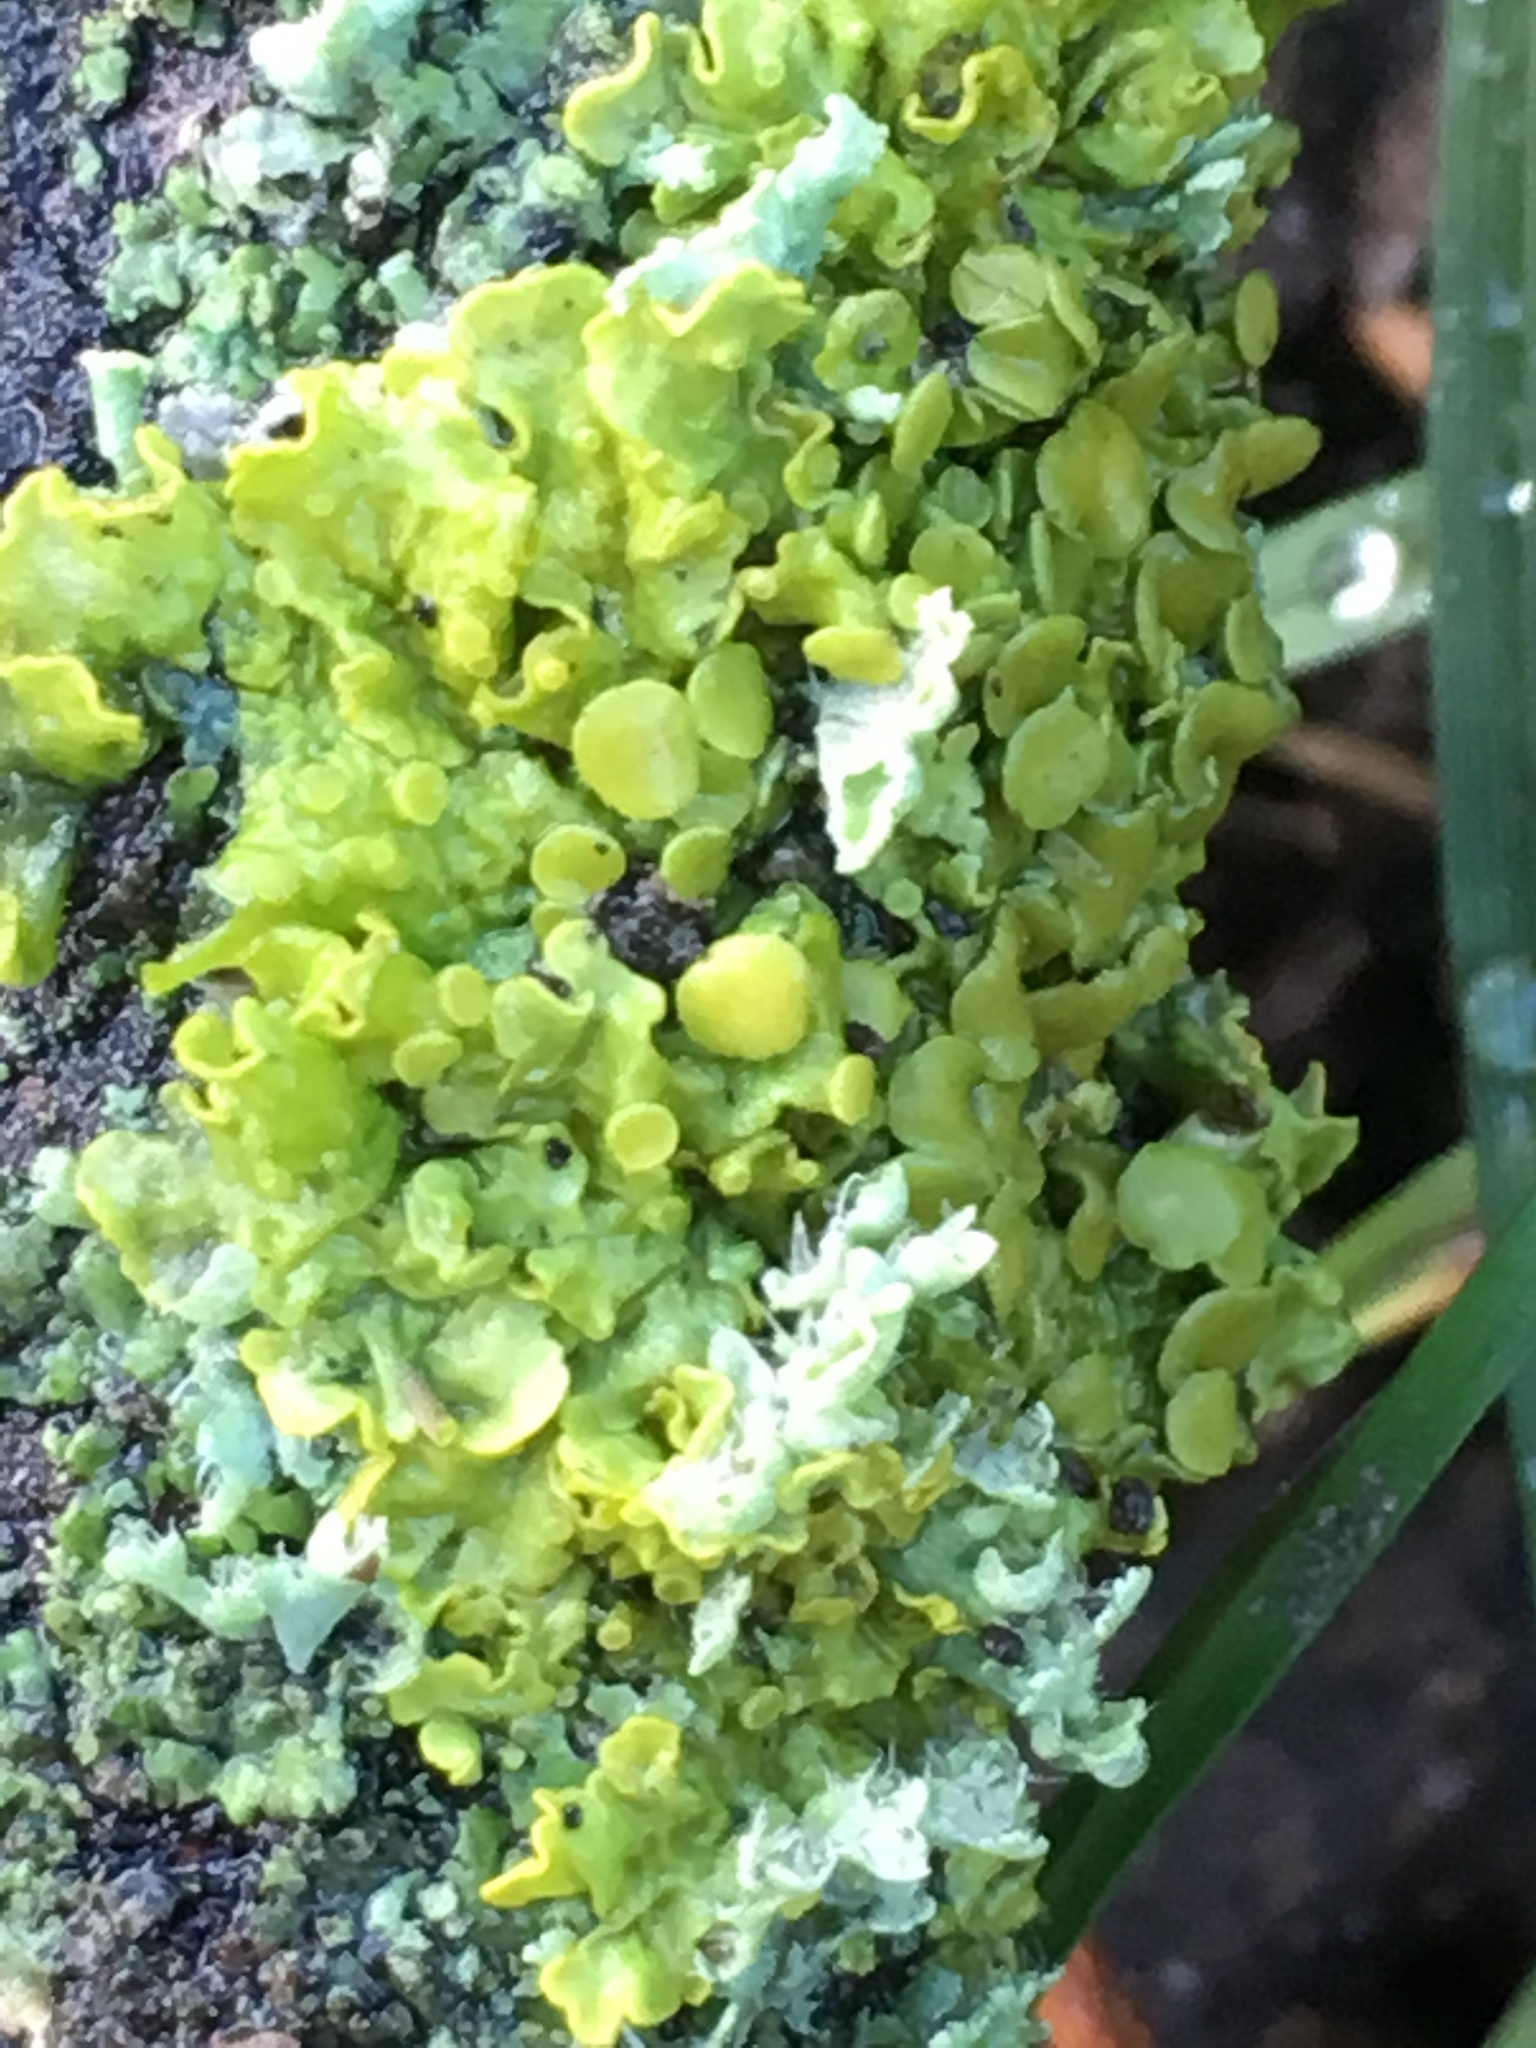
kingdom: Fungi
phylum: Ascomycota
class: Lecanoromycetes
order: Teloschistales
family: Teloschistaceae
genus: Xanthoria
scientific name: Xanthoria parietina
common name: Common orange lichen
